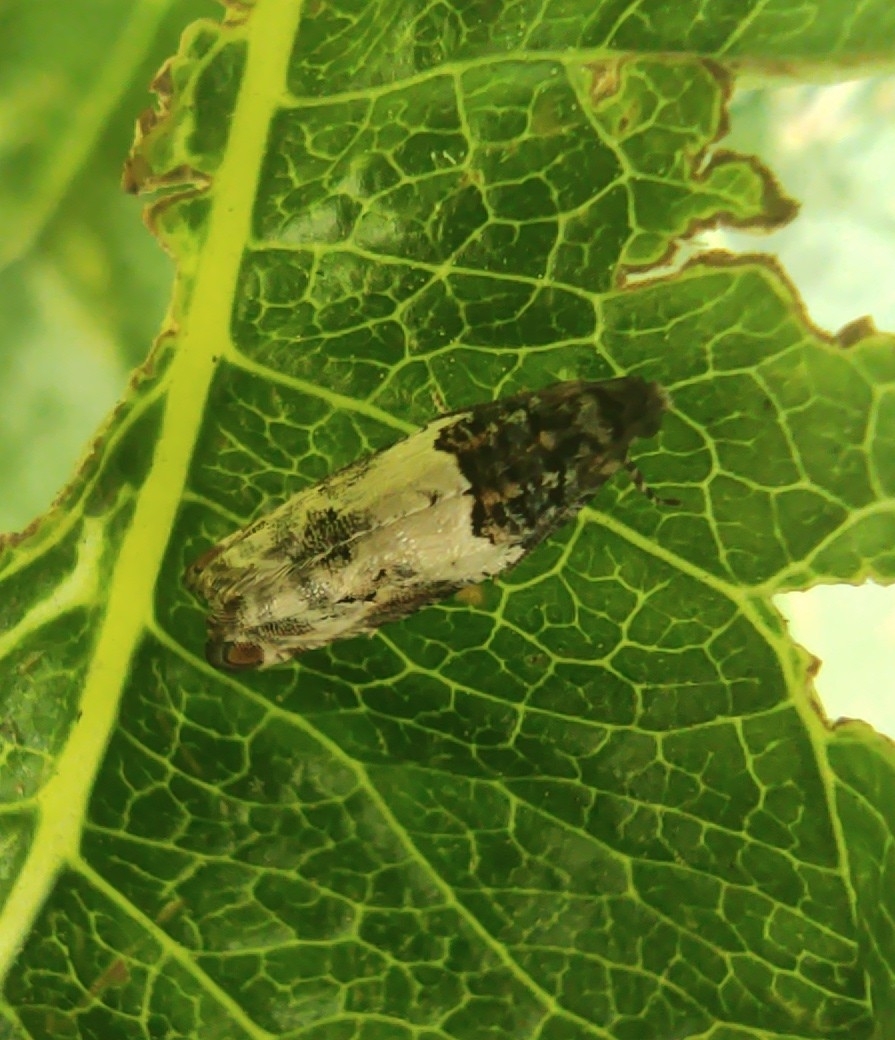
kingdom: Animalia
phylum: Arthropoda
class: Insecta
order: Lepidoptera
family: Tortricidae
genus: Gypsonoma
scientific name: Gypsonoma dealbana
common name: Common cloaked shoot
